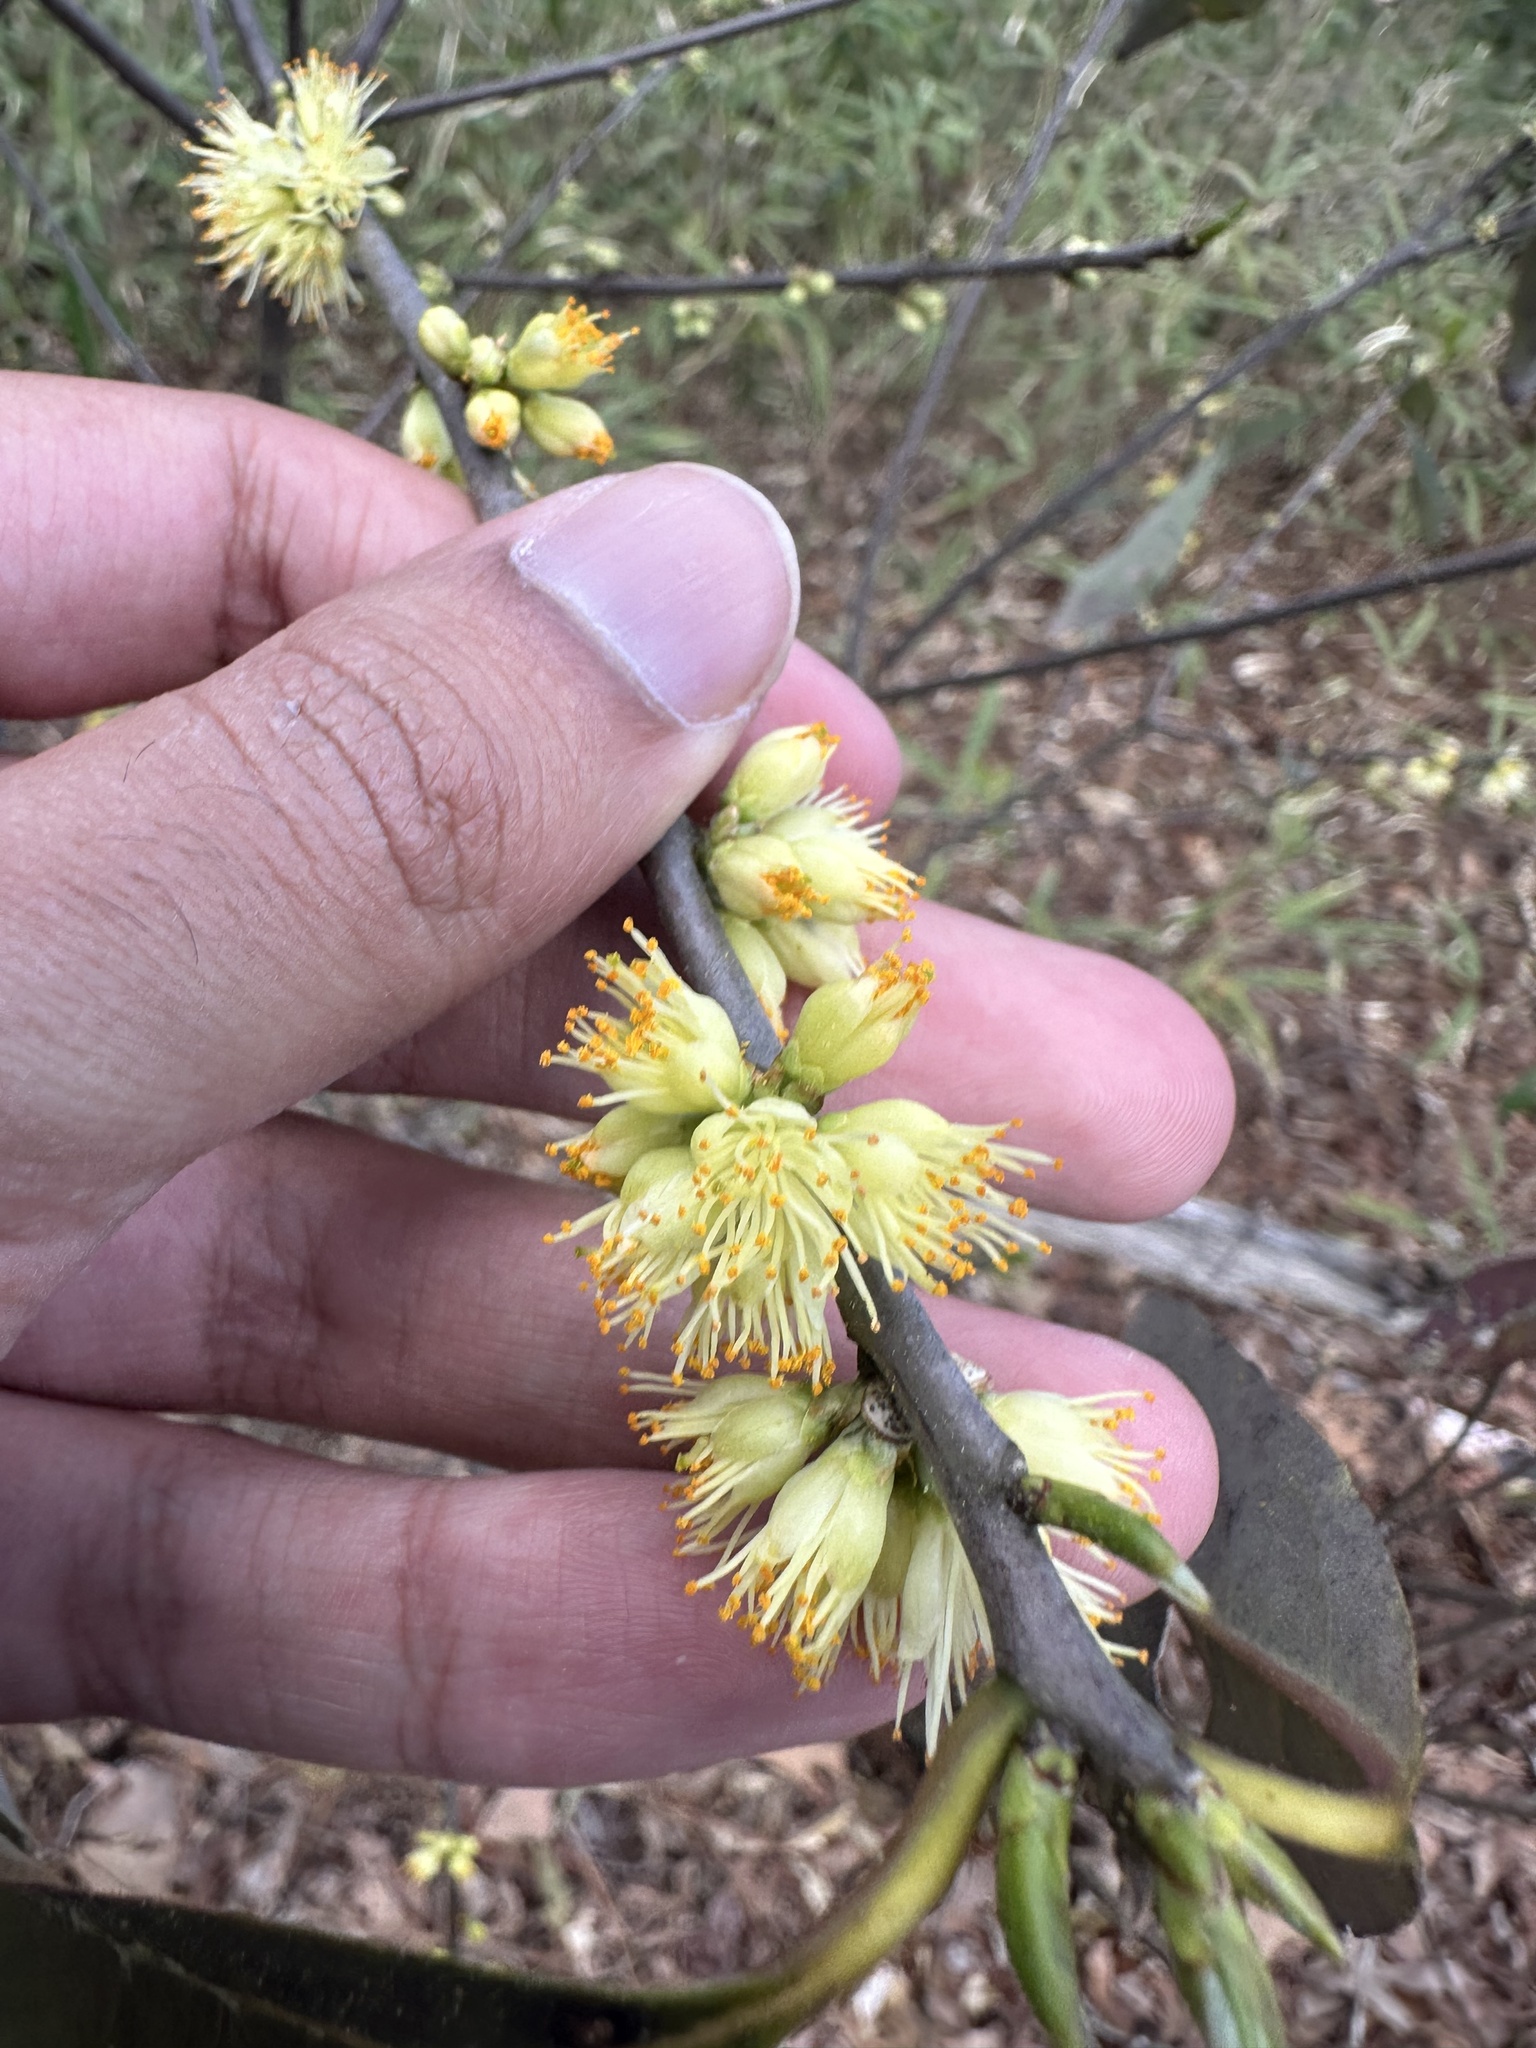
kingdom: Plantae
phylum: Tracheophyta
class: Magnoliopsida
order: Ericales
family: Symplocaceae
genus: Symplocos
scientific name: Symplocos tinctoria
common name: Horse-sugar
